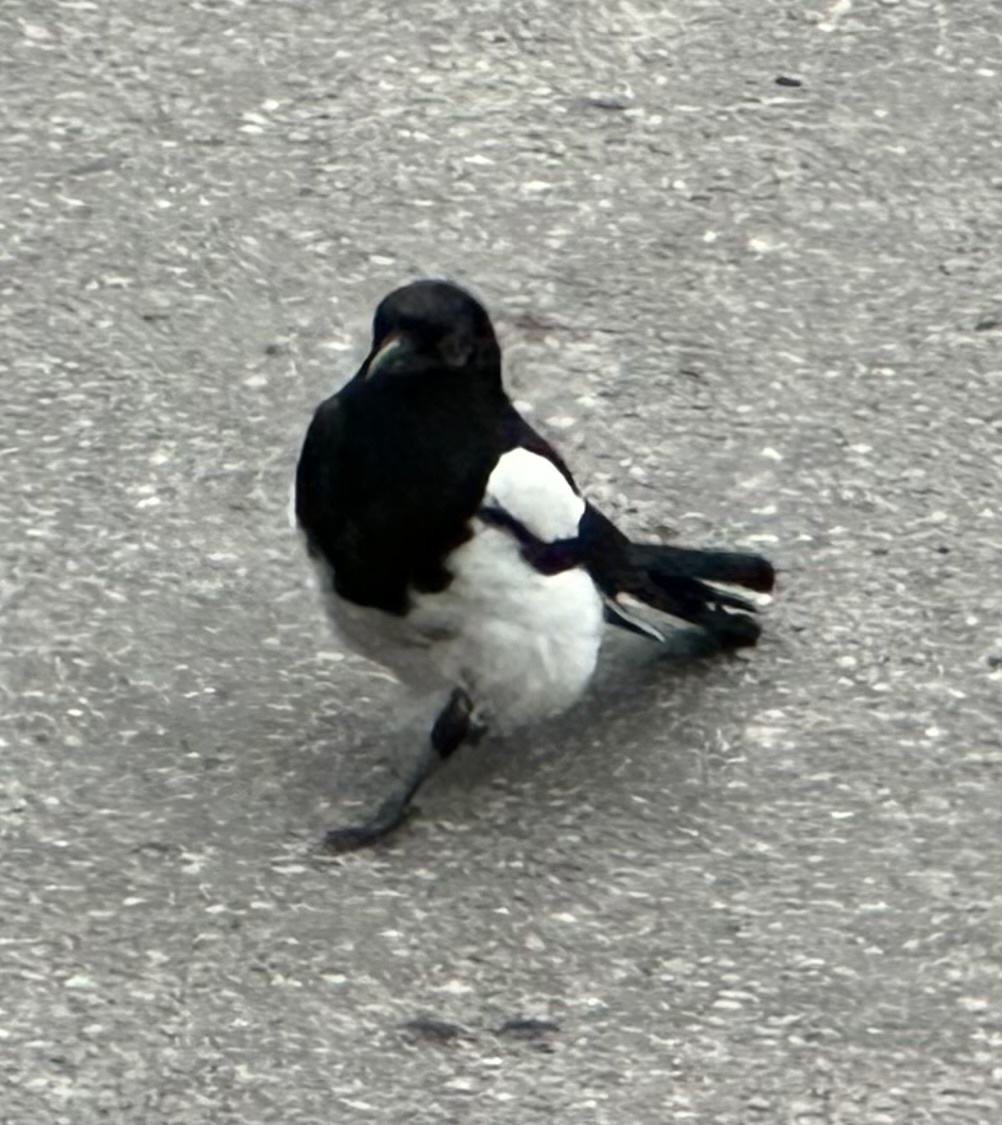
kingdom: Animalia
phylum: Chordata
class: Aves
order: Passeriformes
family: Corvidae
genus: Pica
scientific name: Pica pica
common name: Eurasian magpie
